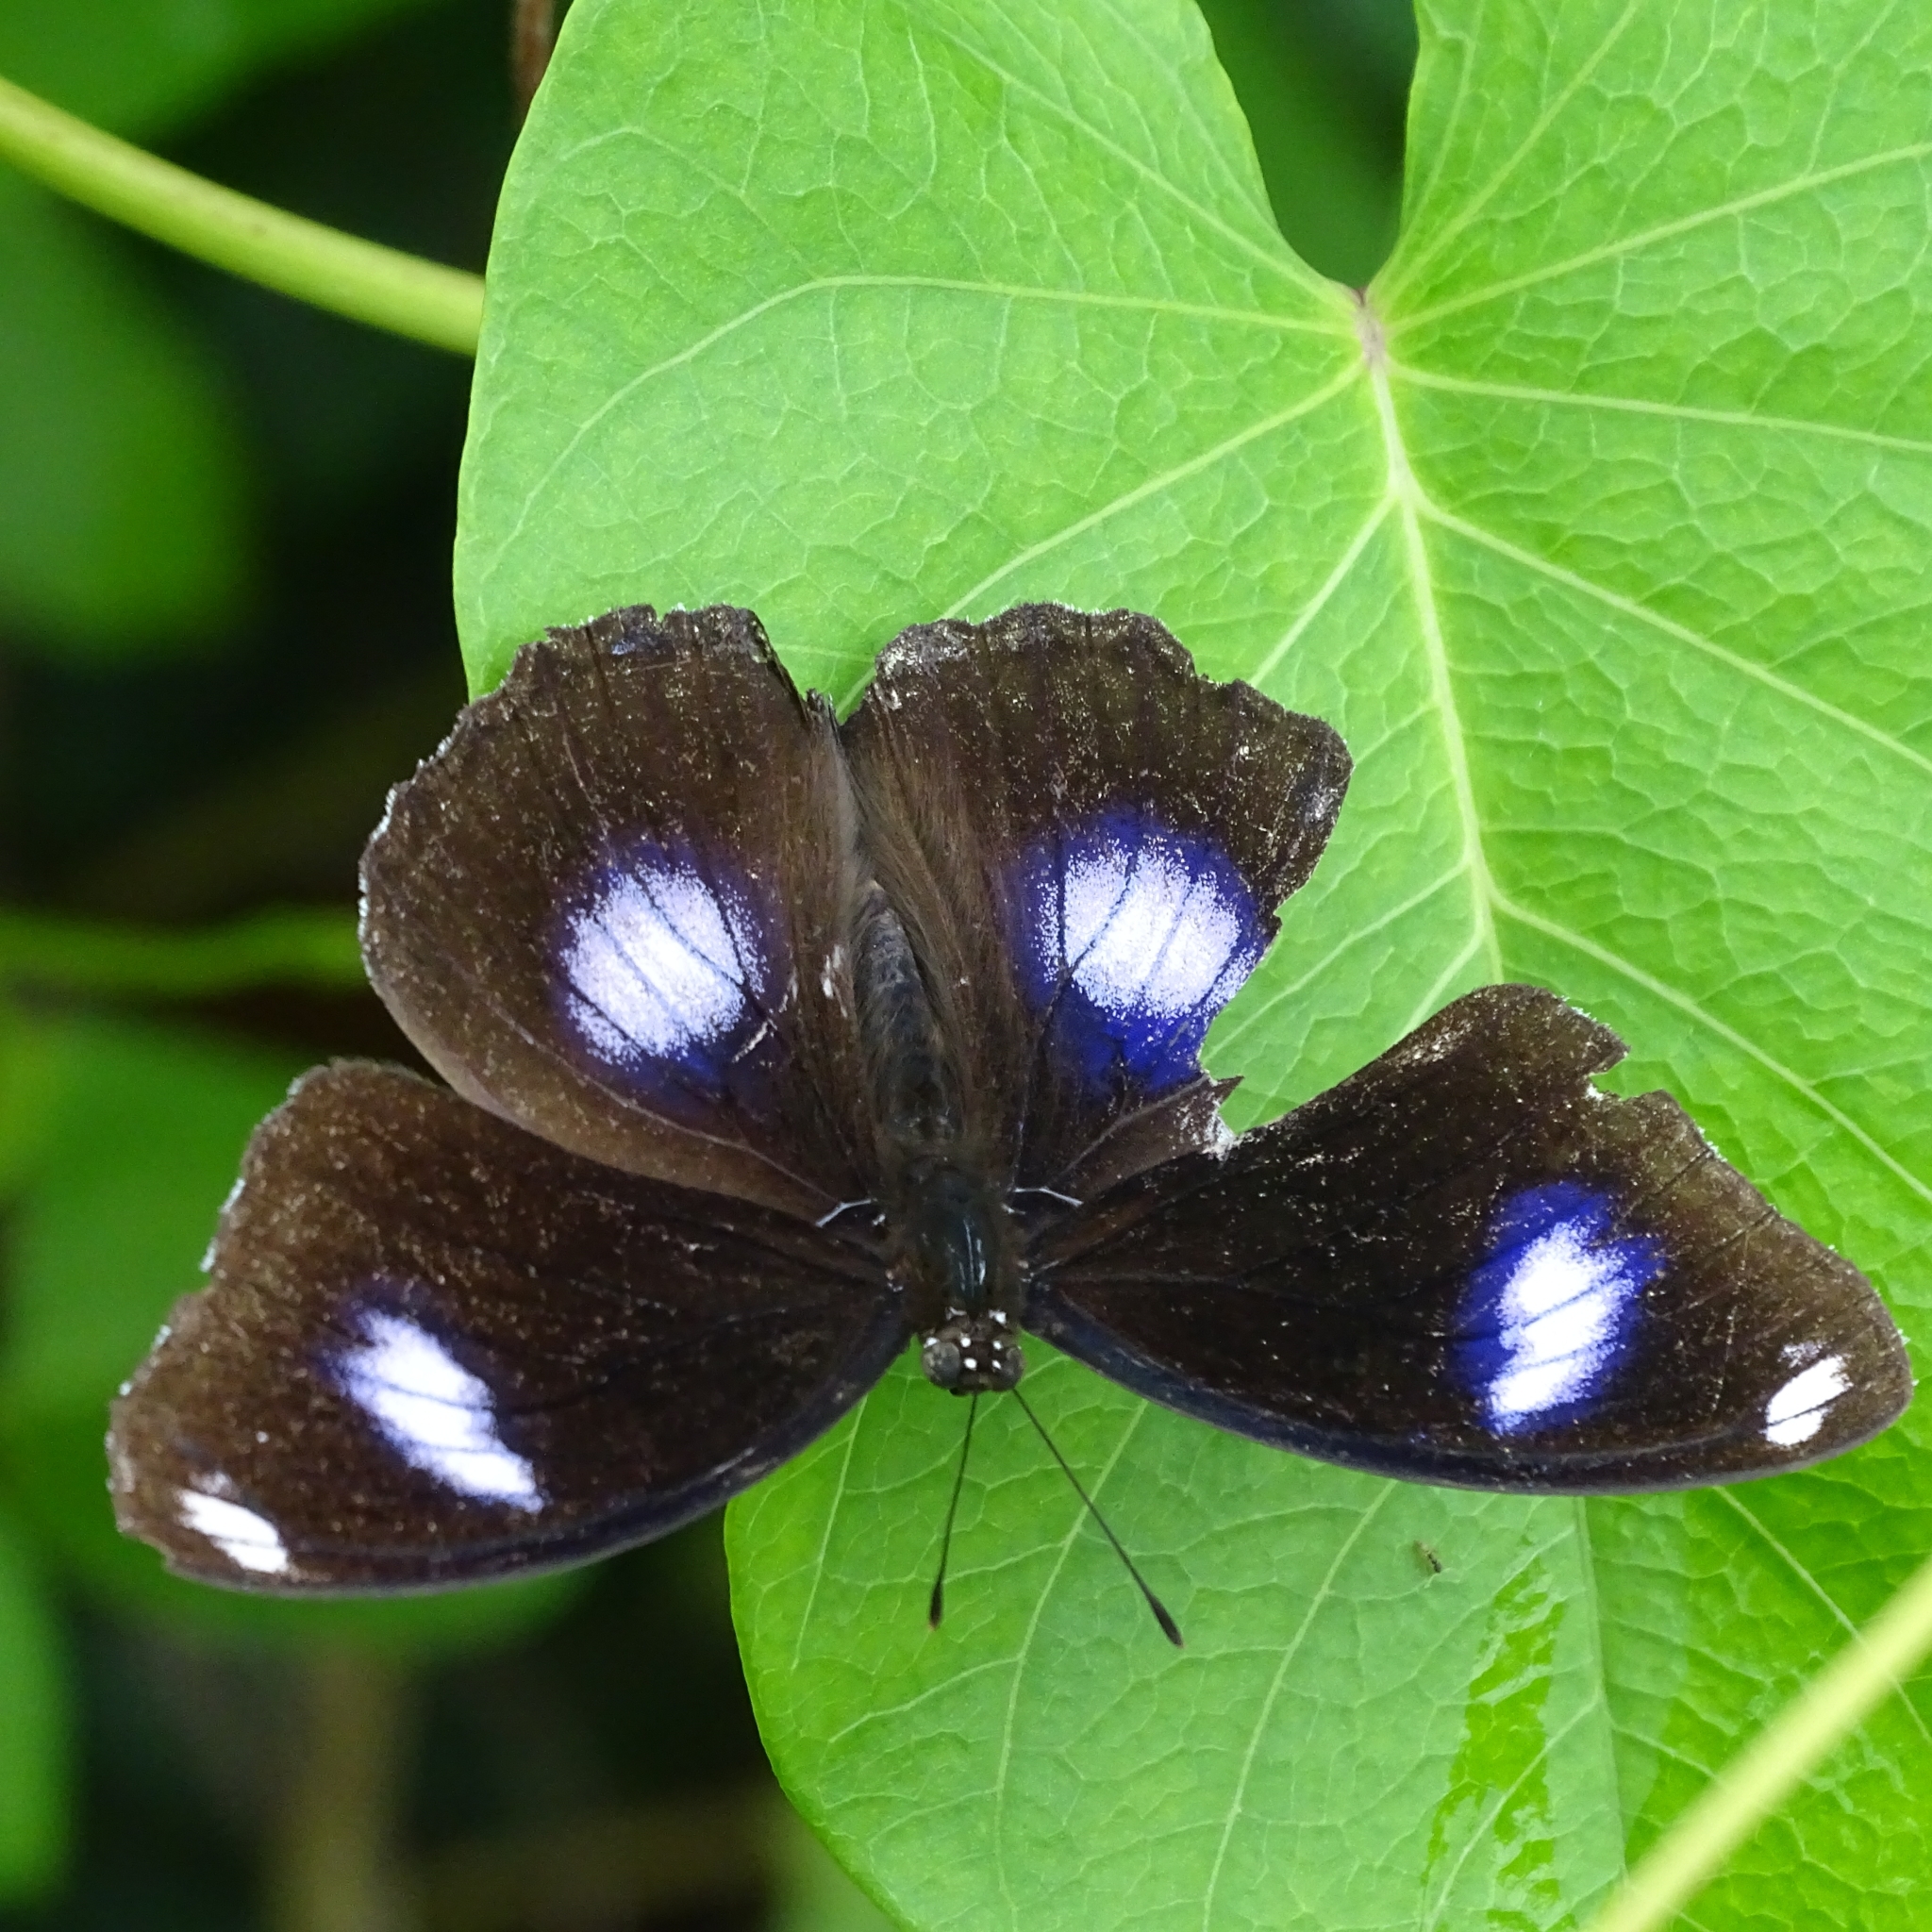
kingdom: Animalia
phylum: Arthropoda
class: Insecta
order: Lepidoptera
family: Nymphalidae
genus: Hypolimnas
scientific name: Hypolimnas bolina
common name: Great eggfly
